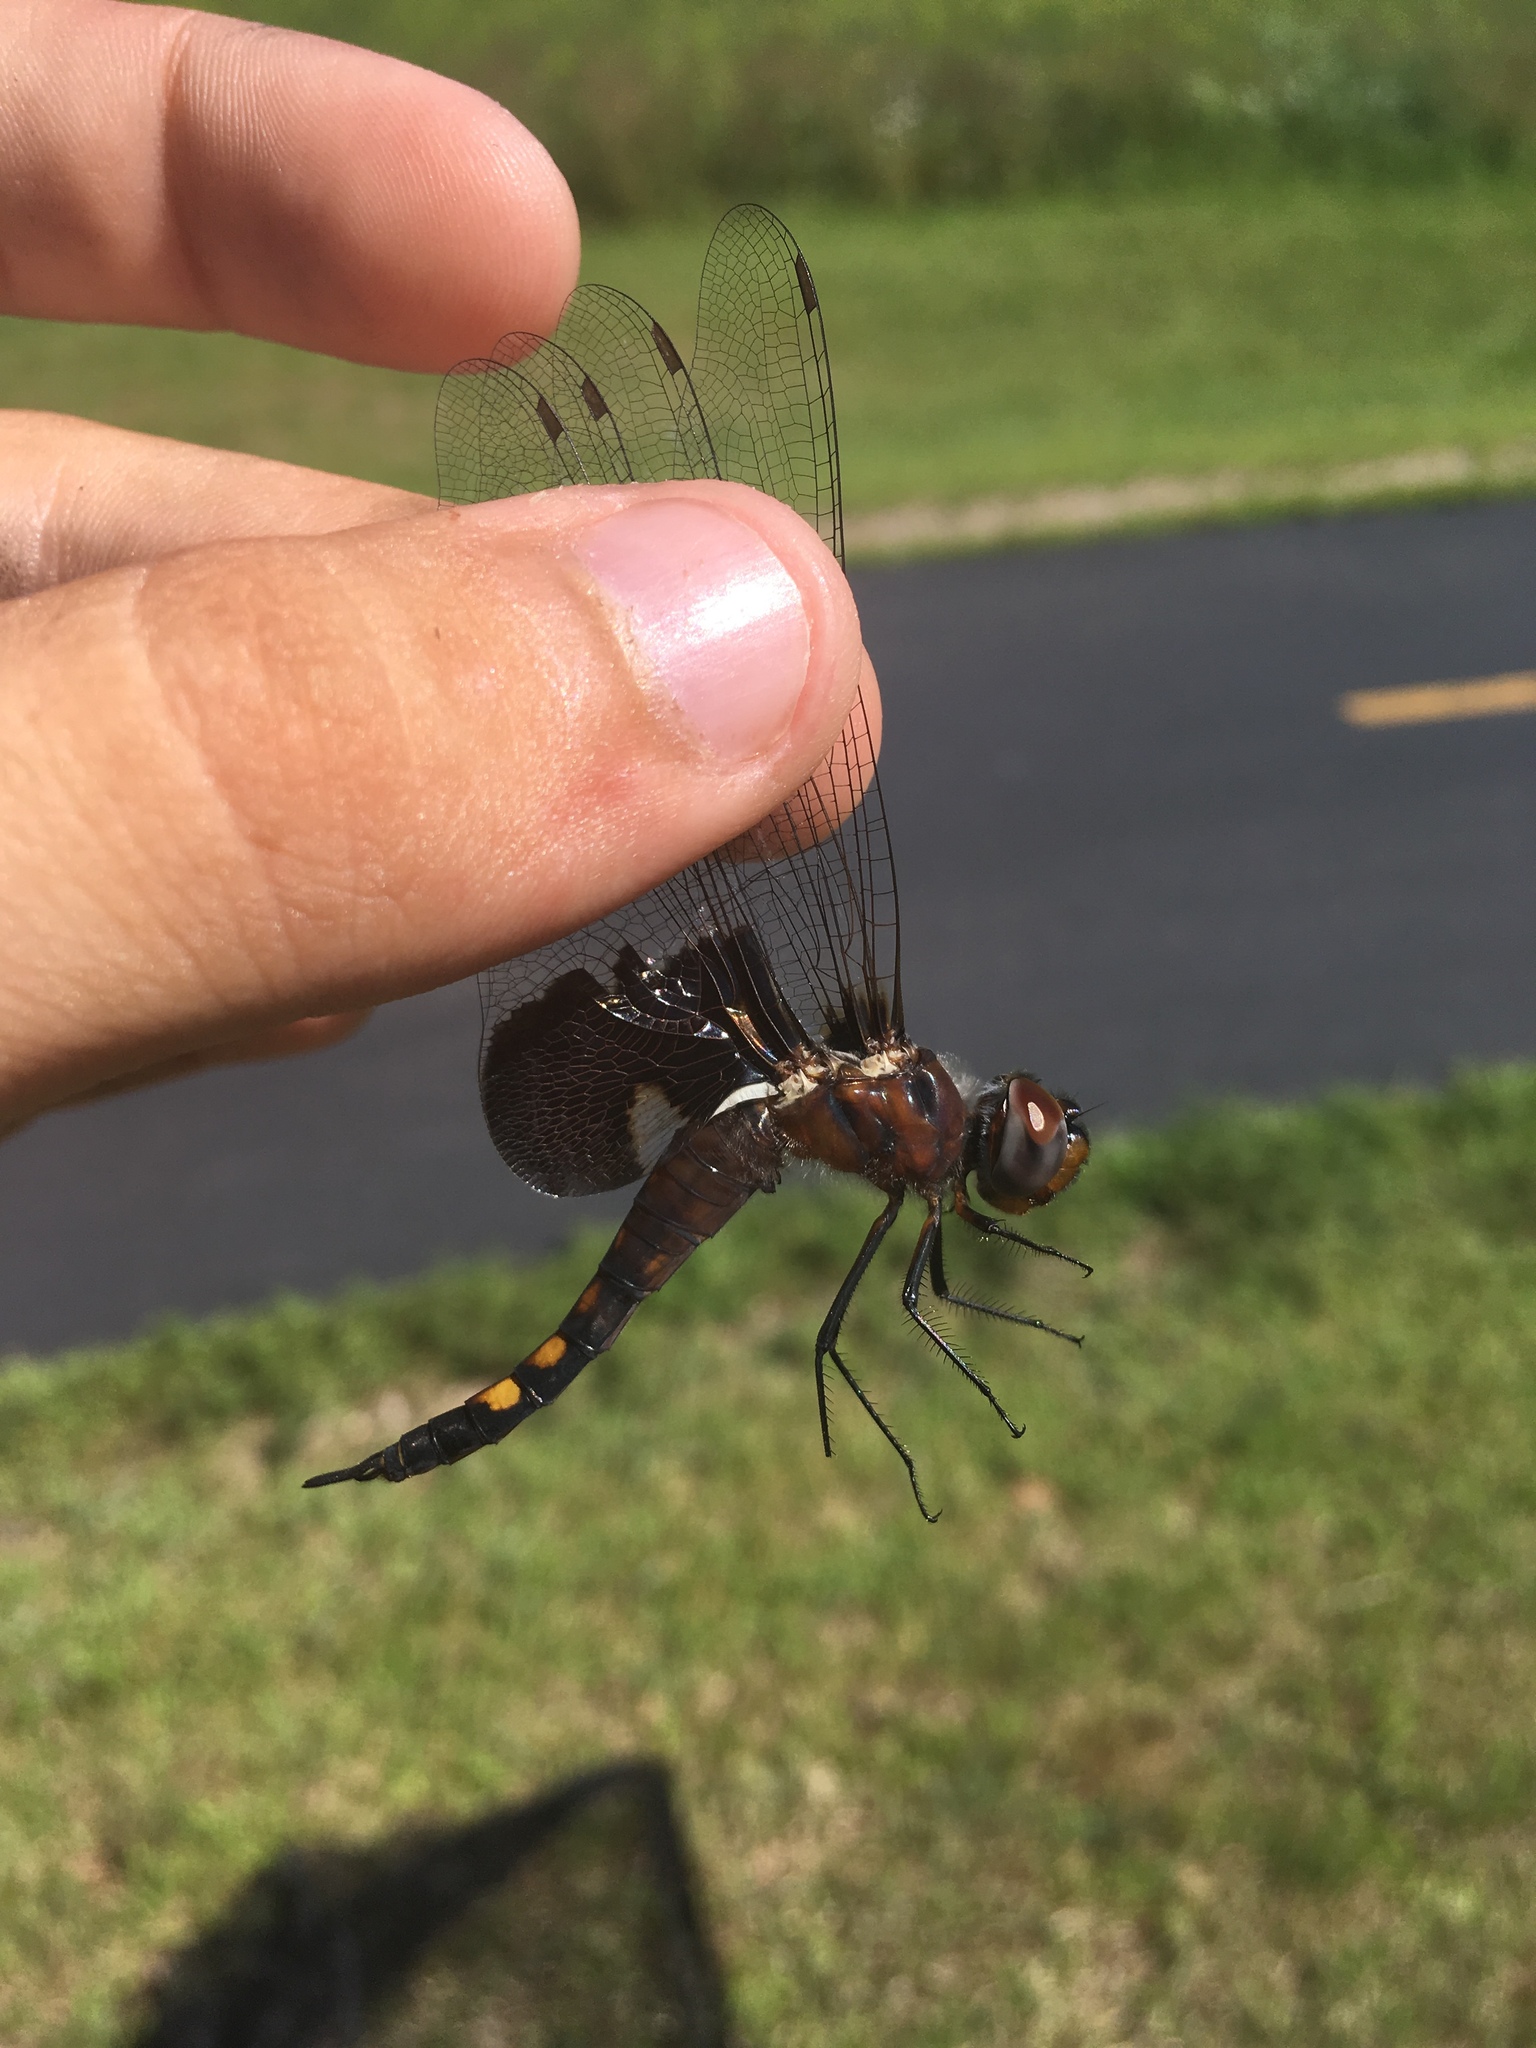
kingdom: Animalia
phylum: Arthropoda
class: Insecta
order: Odonata
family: Libellulidae
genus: Tramea
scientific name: Tramea lacerata
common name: Black saddlebags
